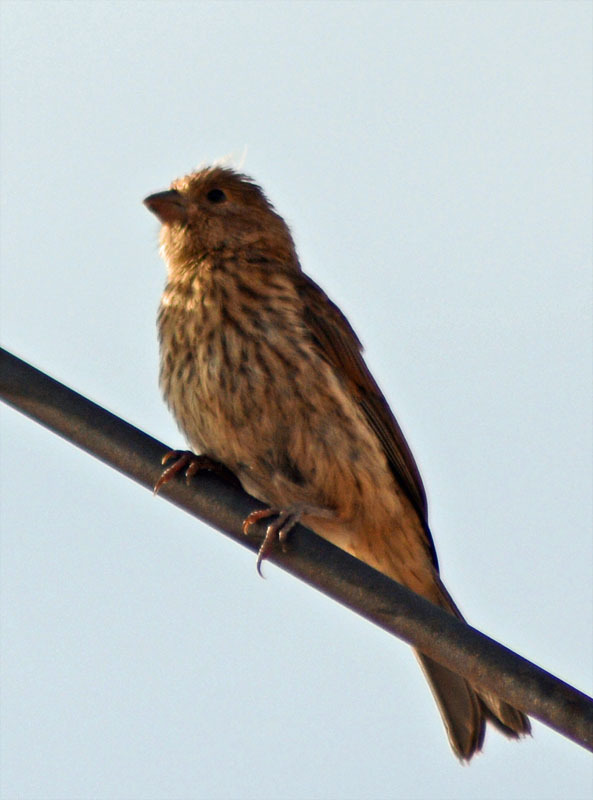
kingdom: Animalia
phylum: Chordata
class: Aves
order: Passeriformes
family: Fringillidae
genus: Haemorhous
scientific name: Haemorhous mexicanus
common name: House finch
